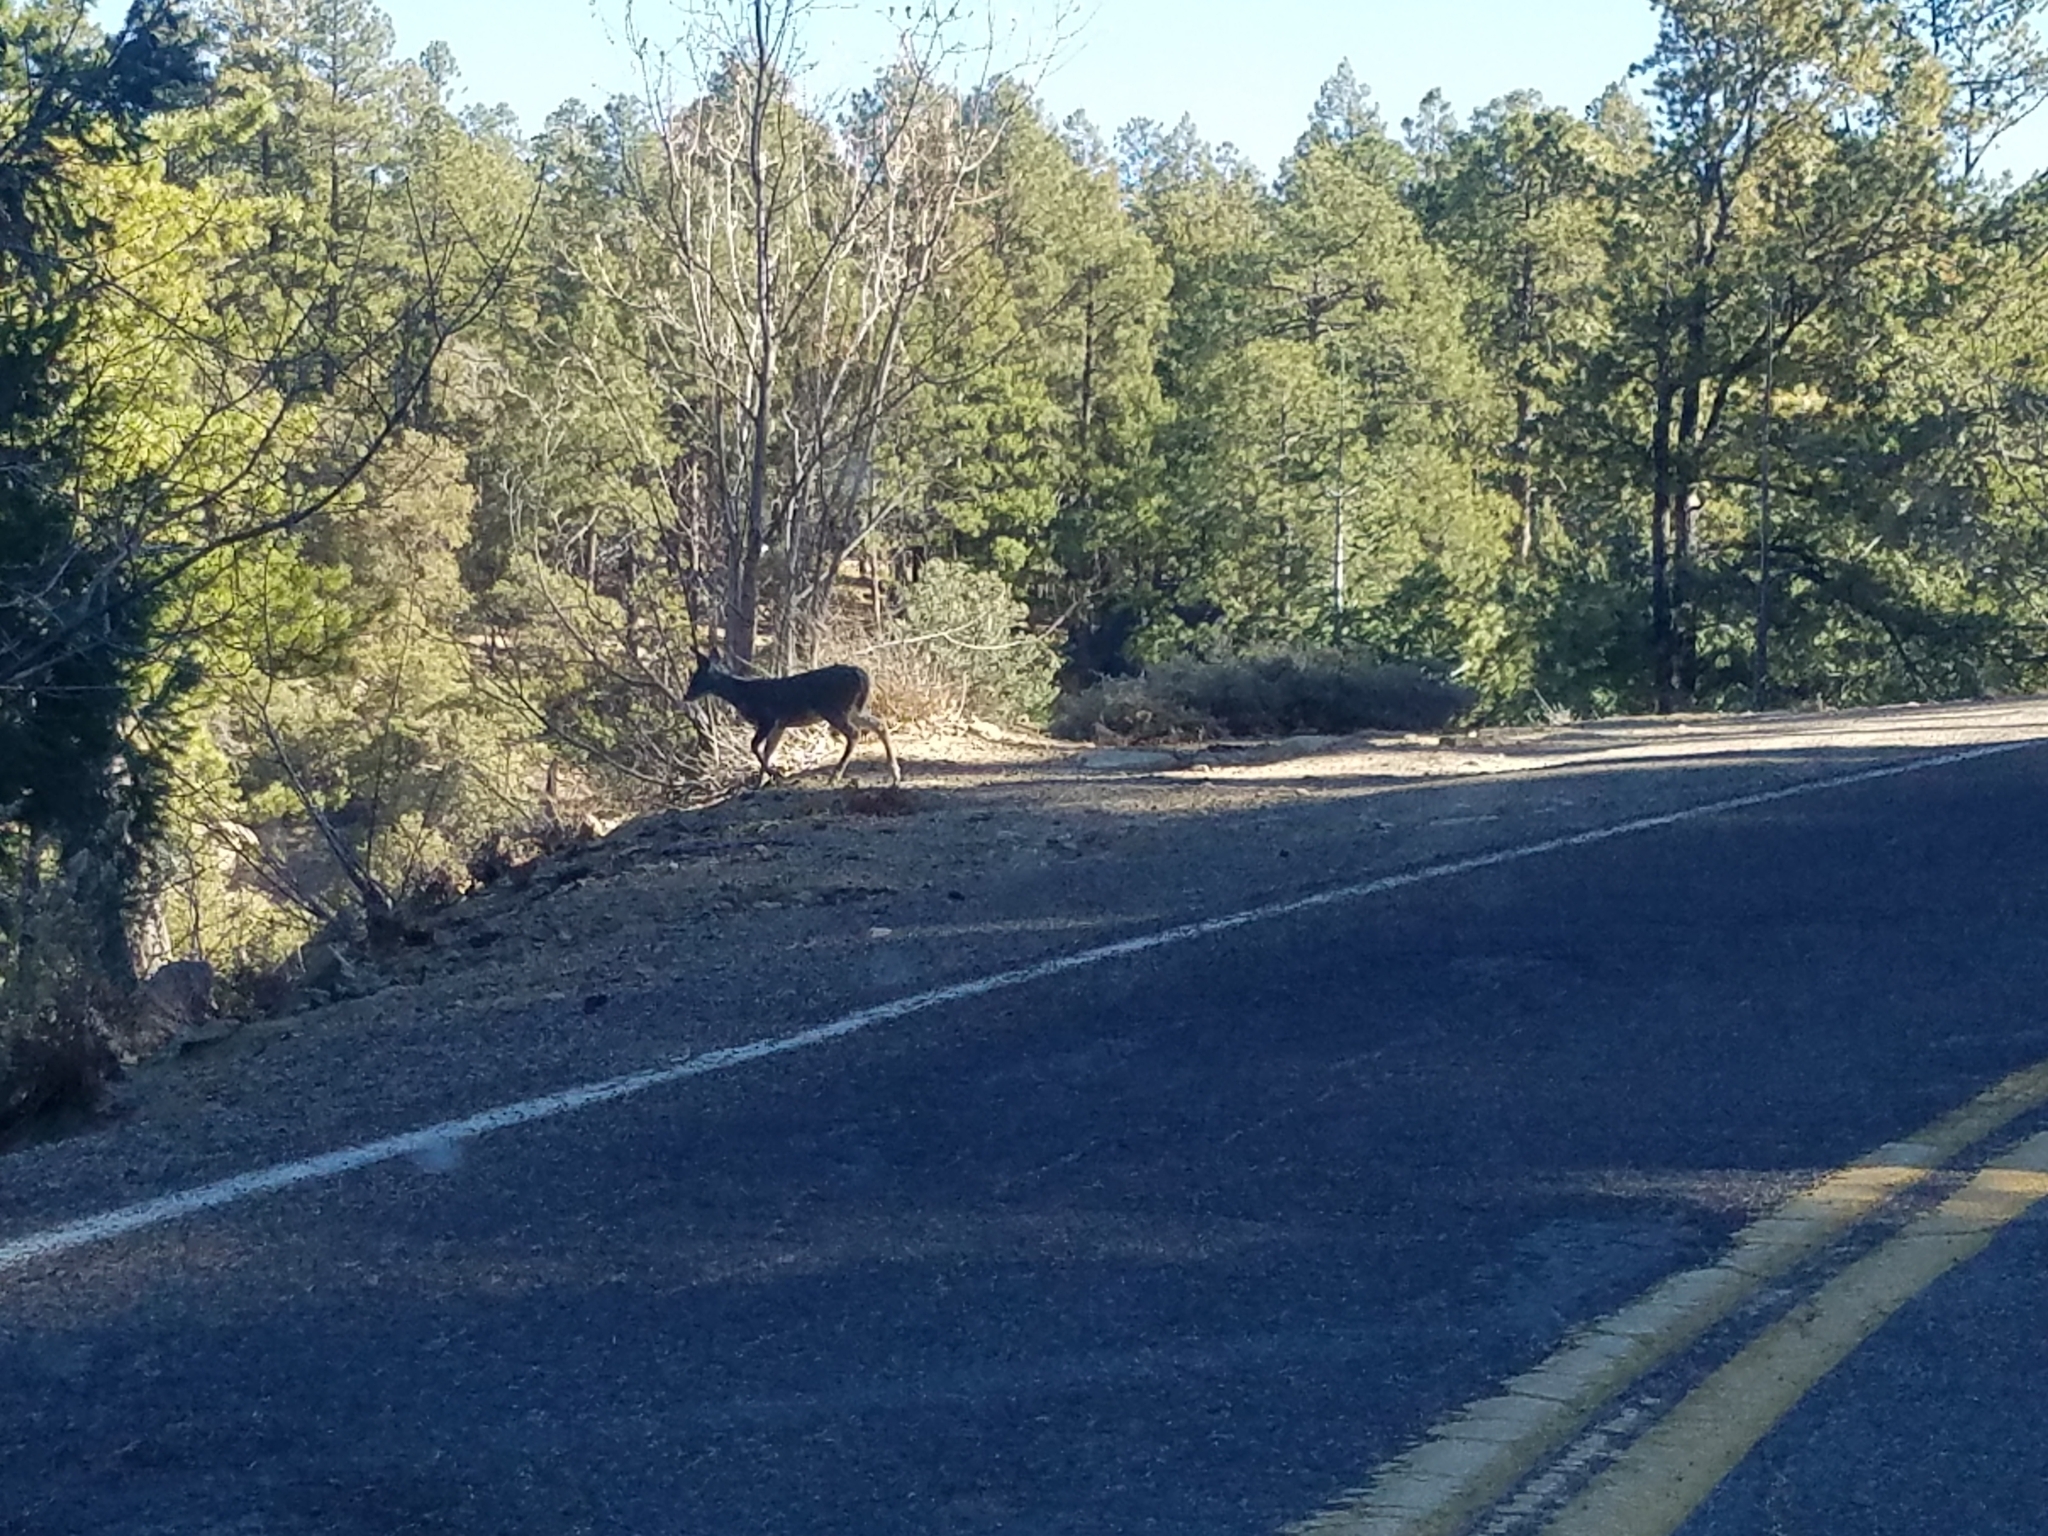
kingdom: Animalia
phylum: Chordata
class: Mammalia
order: Artiodactyla
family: Cervidae
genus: Odocoileus
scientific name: Odocoileus virginianus
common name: White-tailed deer
